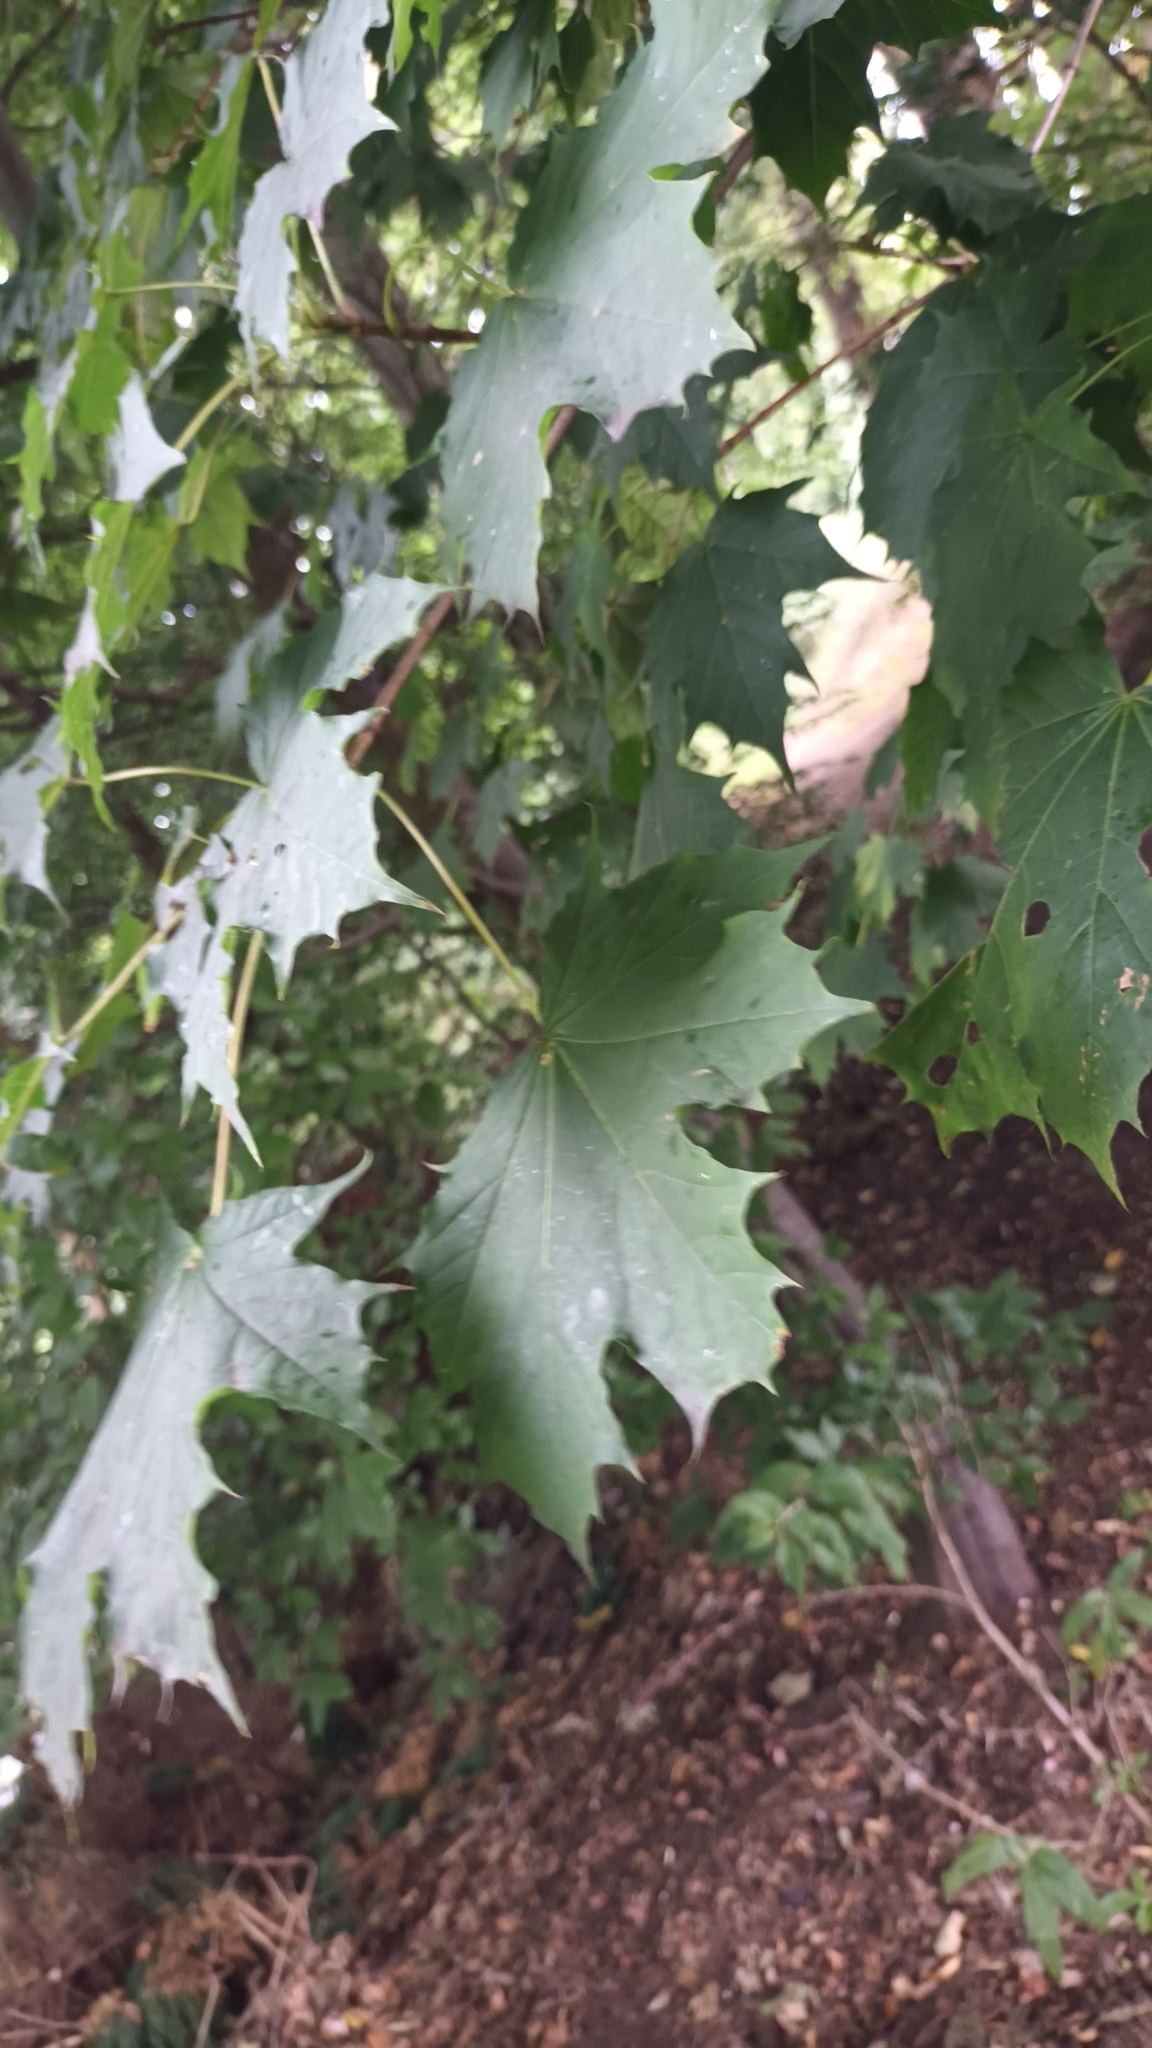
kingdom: Plantae
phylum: Tracheophyta
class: Magnoliopsida
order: Sapindales
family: Sapindaceae
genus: Acer
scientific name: Acer platanoides
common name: Norway maple
